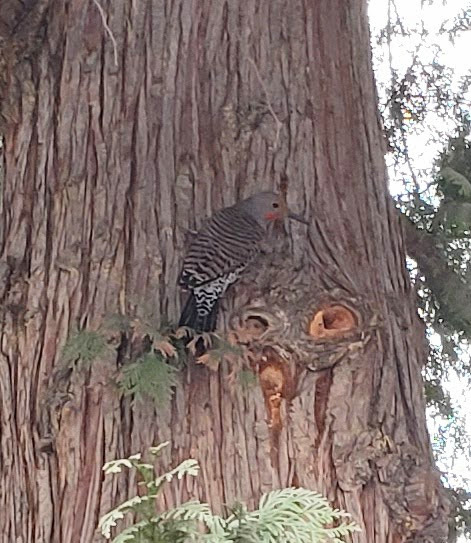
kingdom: Animalia
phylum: Chordata
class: Aves
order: Piciformes
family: Picidae
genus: Colaptes
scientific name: Colaptes auratus
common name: Northern flicker
